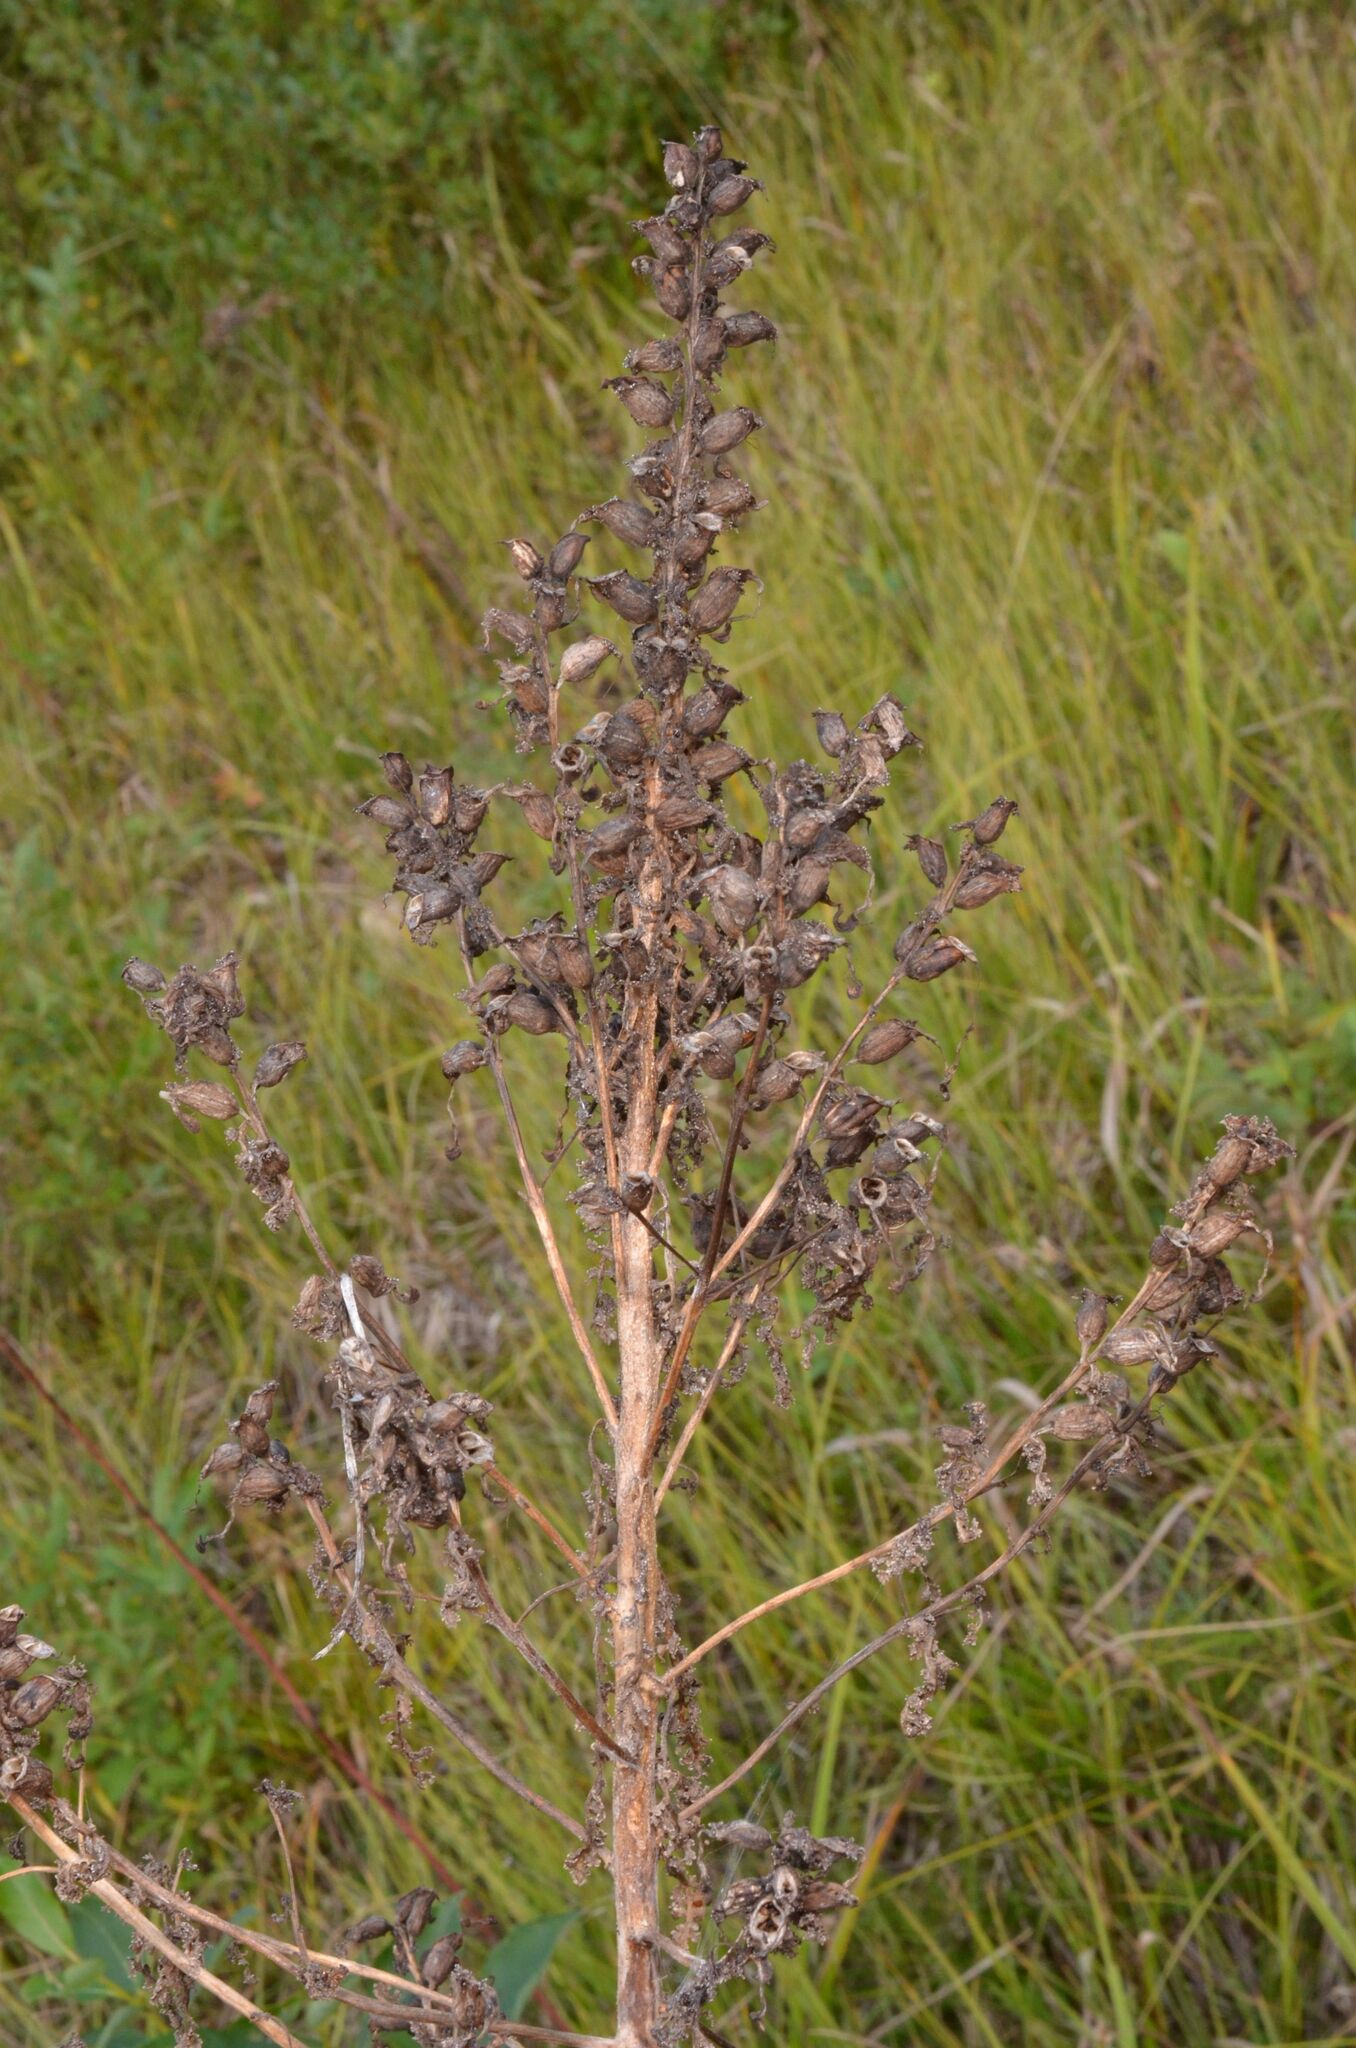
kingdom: Plantae
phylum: Tracheophyta
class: Magnoliopsida
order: Lamiales
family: Orobanchaceae
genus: Pedicularis
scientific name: Pedicularis palustris
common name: Marsh lousewort
